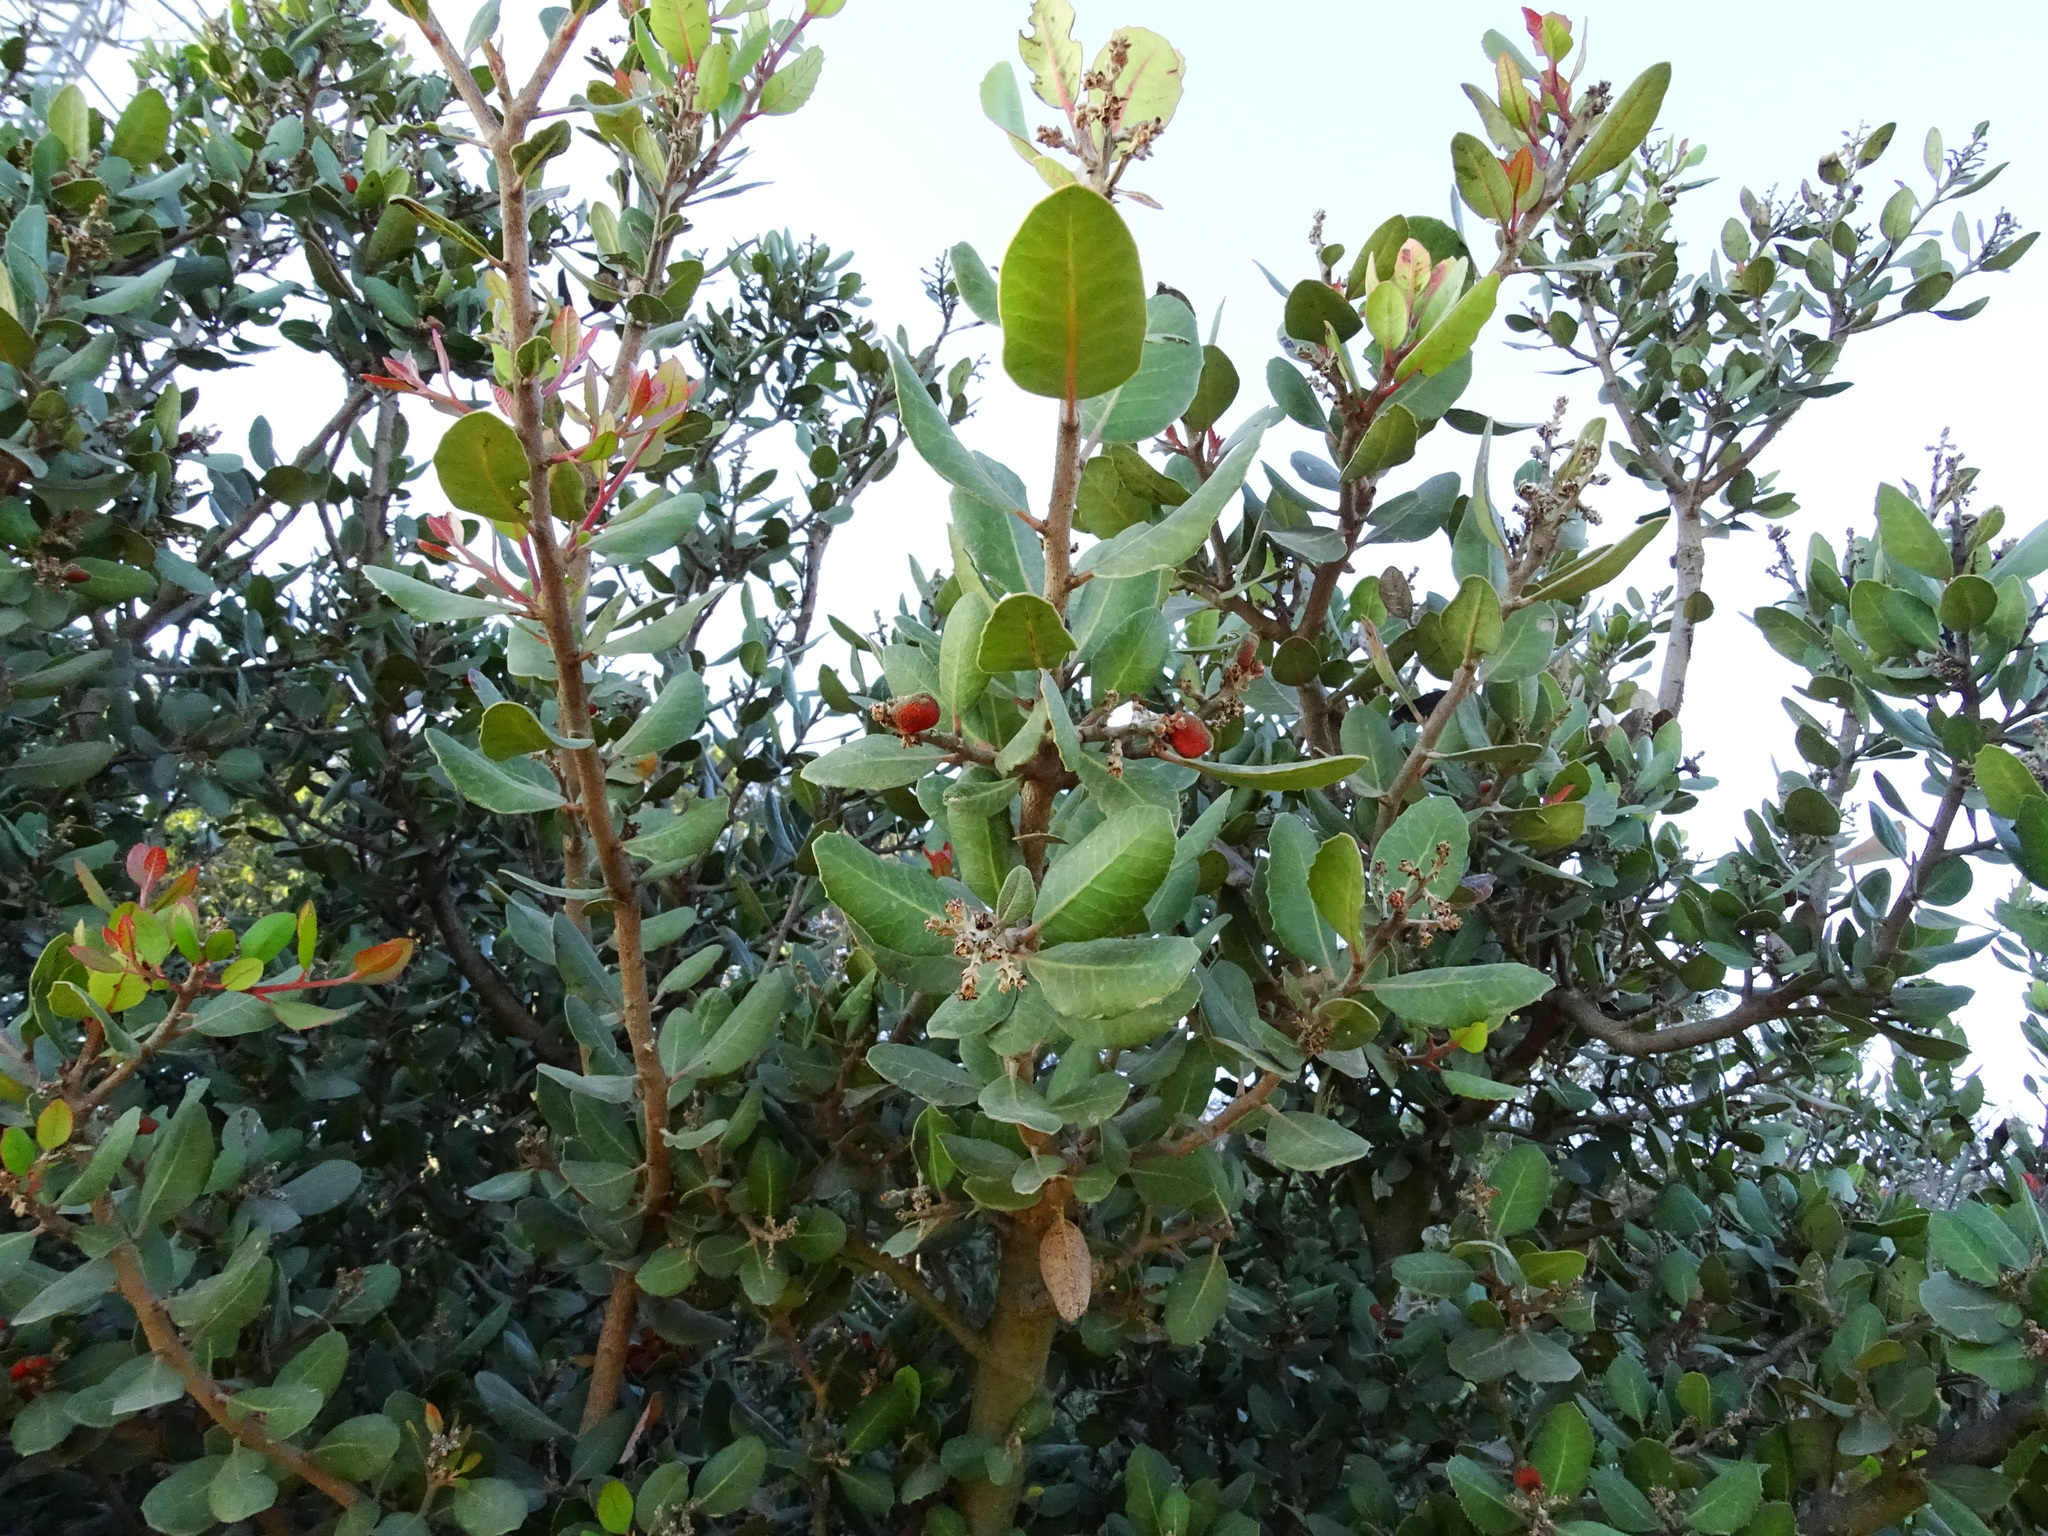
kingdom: Plantae
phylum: Tracheophyta
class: Magnoliopsida
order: Sapindales
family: Anacardiaceae
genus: Rhus
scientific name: Rhus integrifolia
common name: Lemonade sumac
